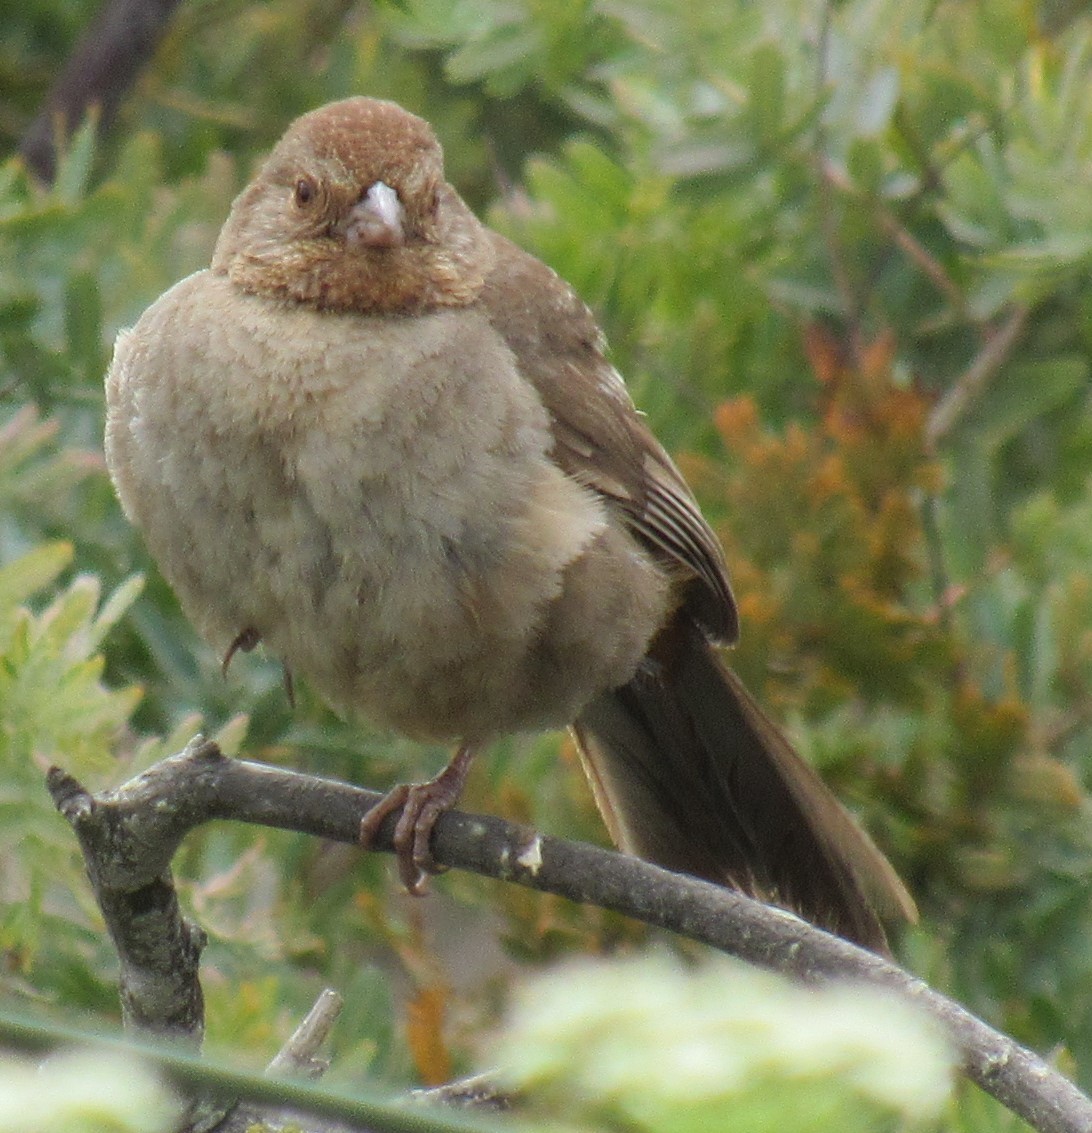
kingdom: Animalia
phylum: Chordata
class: Aves
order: Passeriformes
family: Passerellidae
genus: Melozone
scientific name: Melozone crissalis
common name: California towhee
